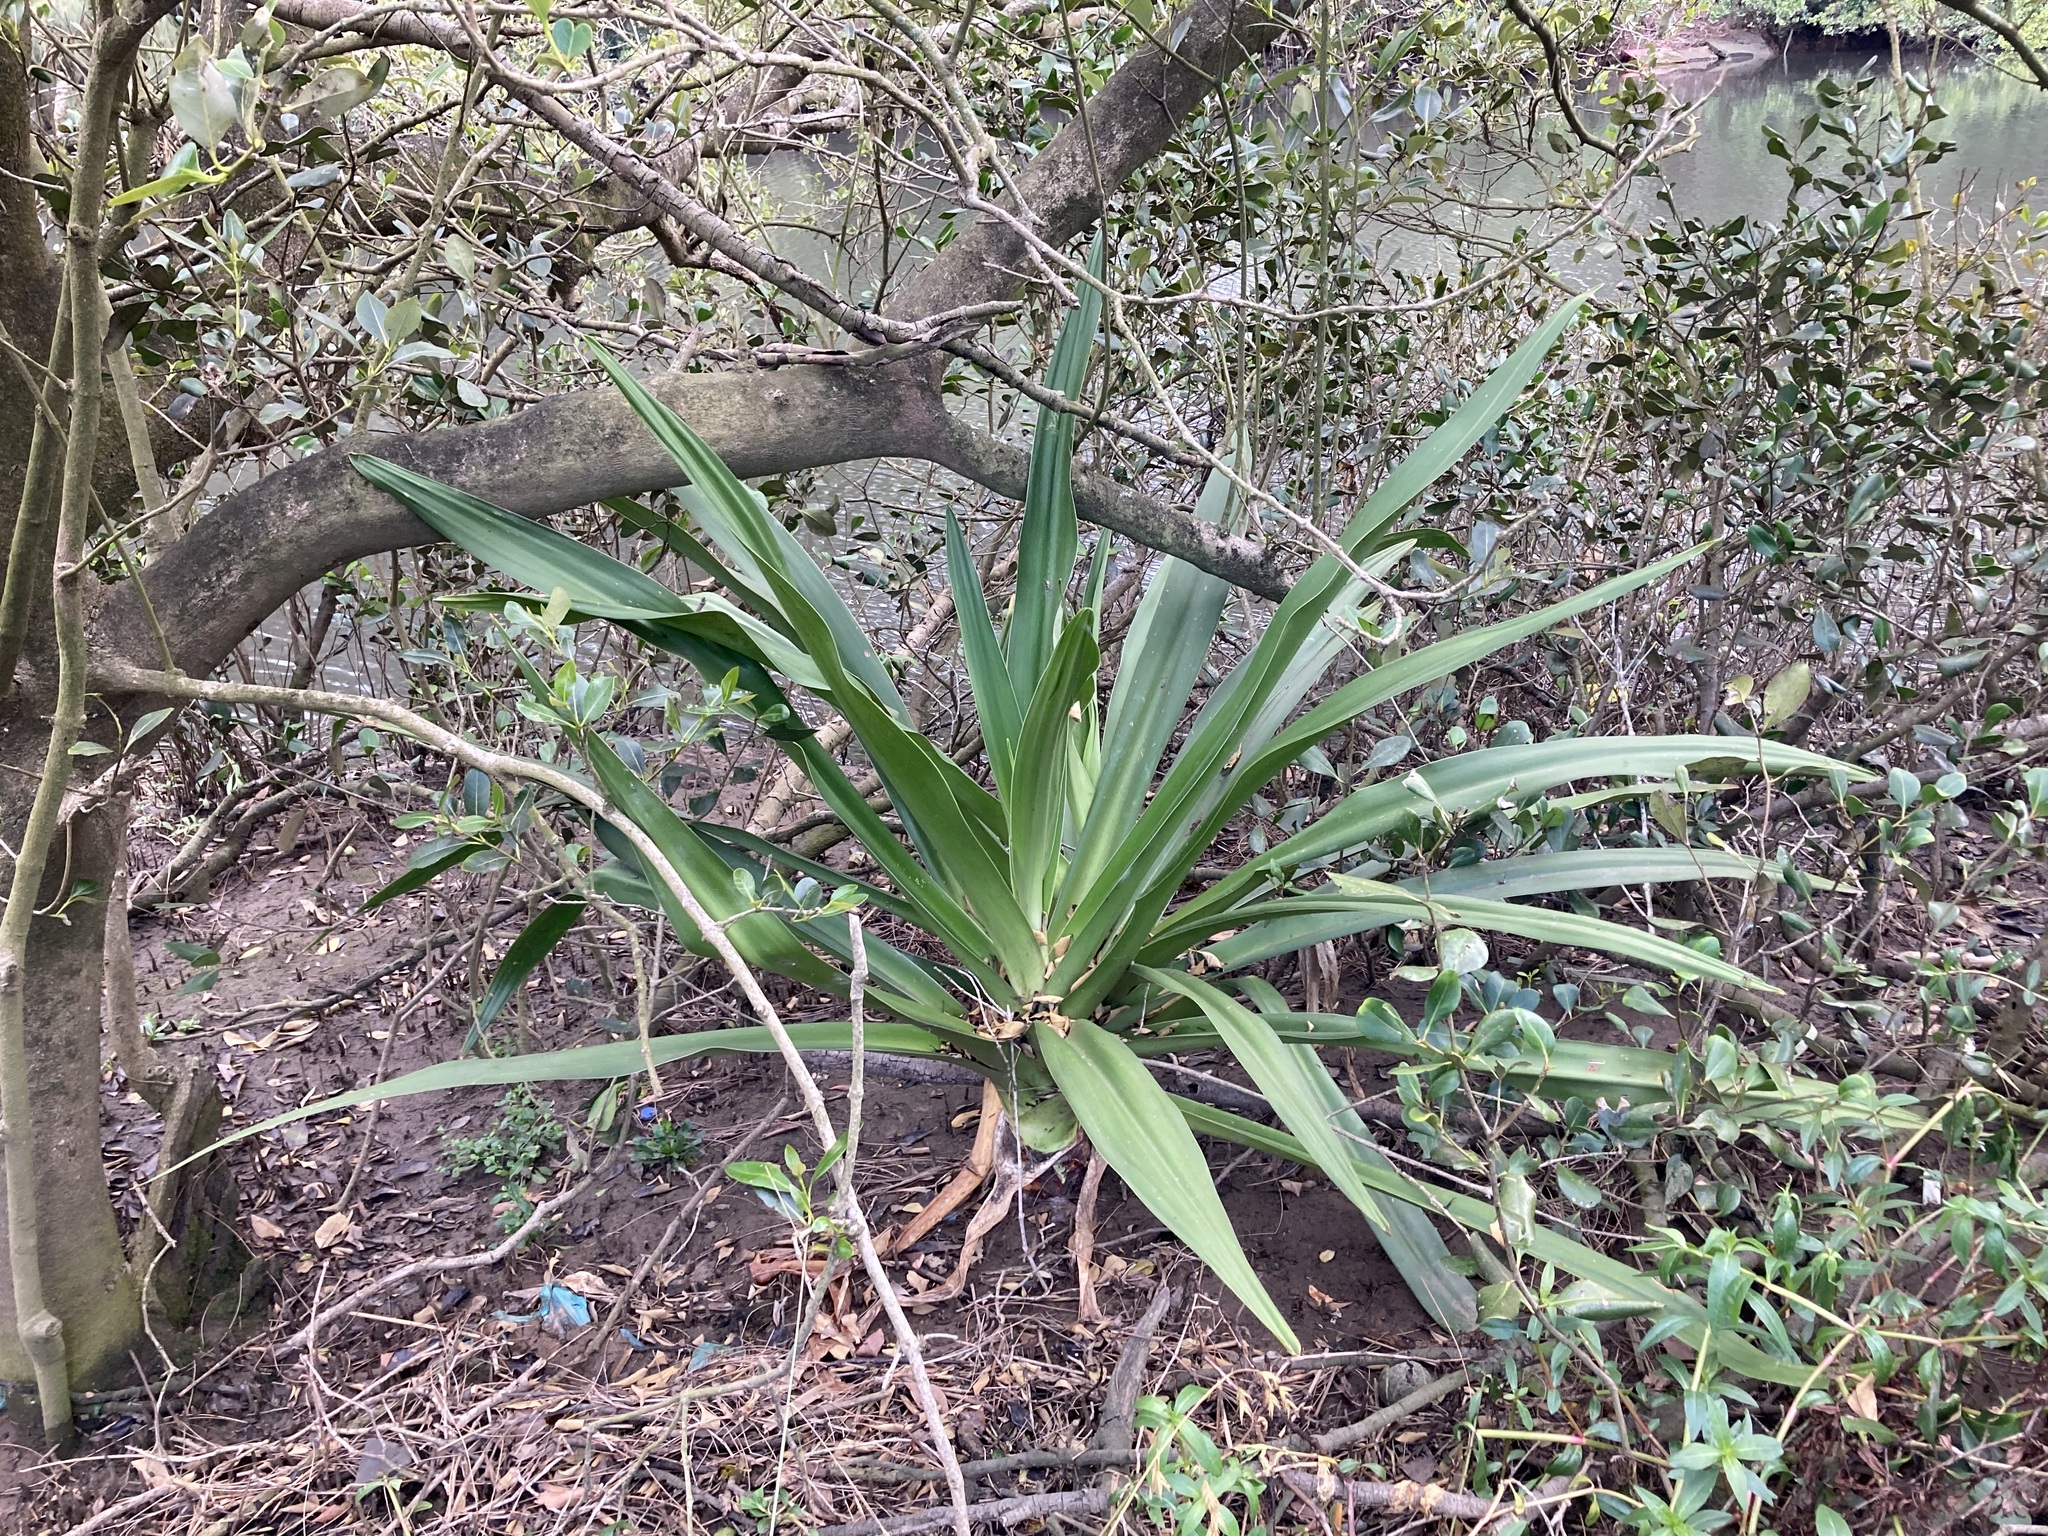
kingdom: Plantae
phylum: Tracheophyta
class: Liliopsida
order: Asparagales
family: Amaryllidaceae
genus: Crinum
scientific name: Crinum pedunculatum
